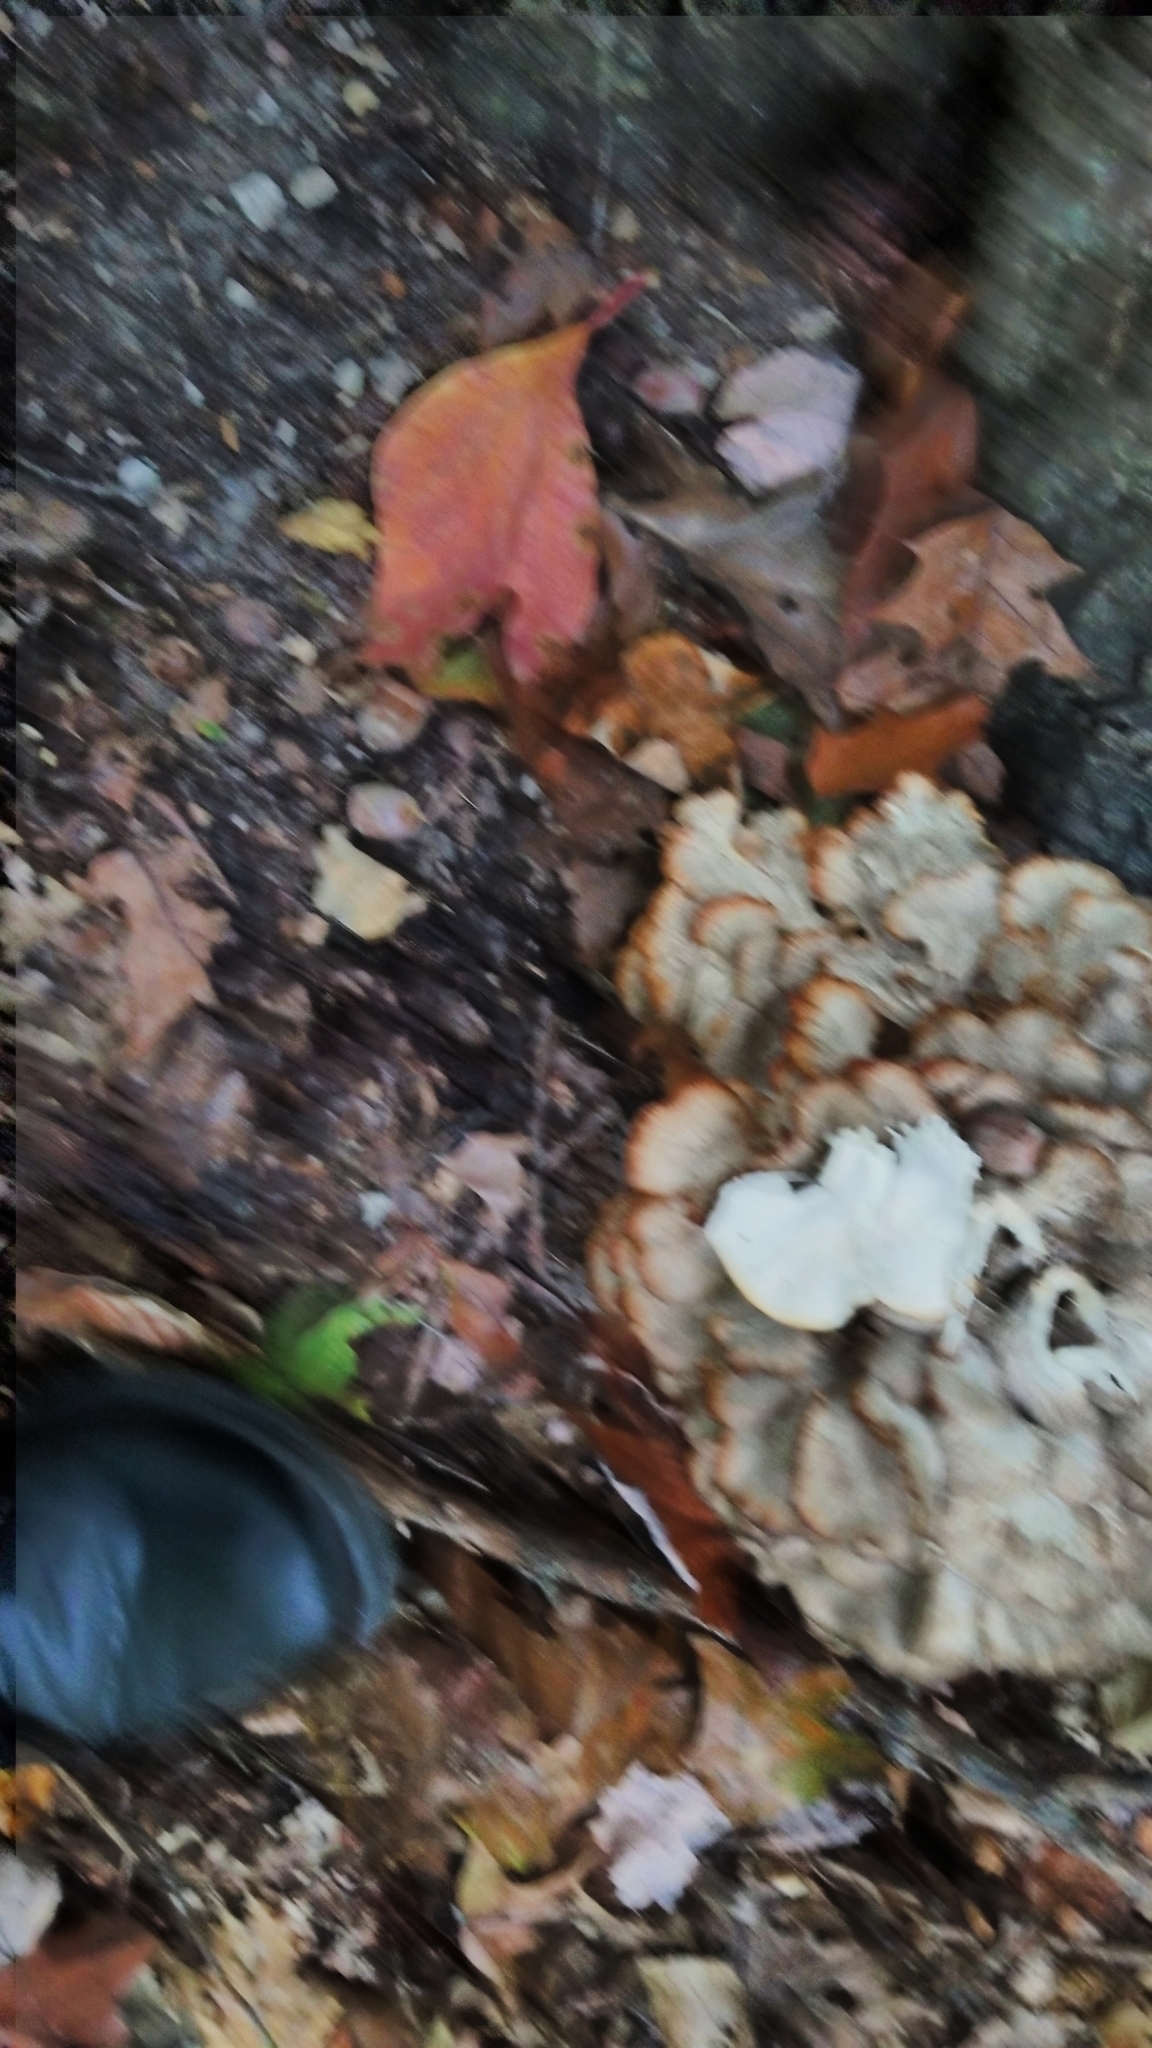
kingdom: Fungi
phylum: Basidiomycota
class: Agaricomycetes
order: Polyporales
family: Grifolaceae
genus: Grifola
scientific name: Grifola frondosa
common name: Hen of the woods
